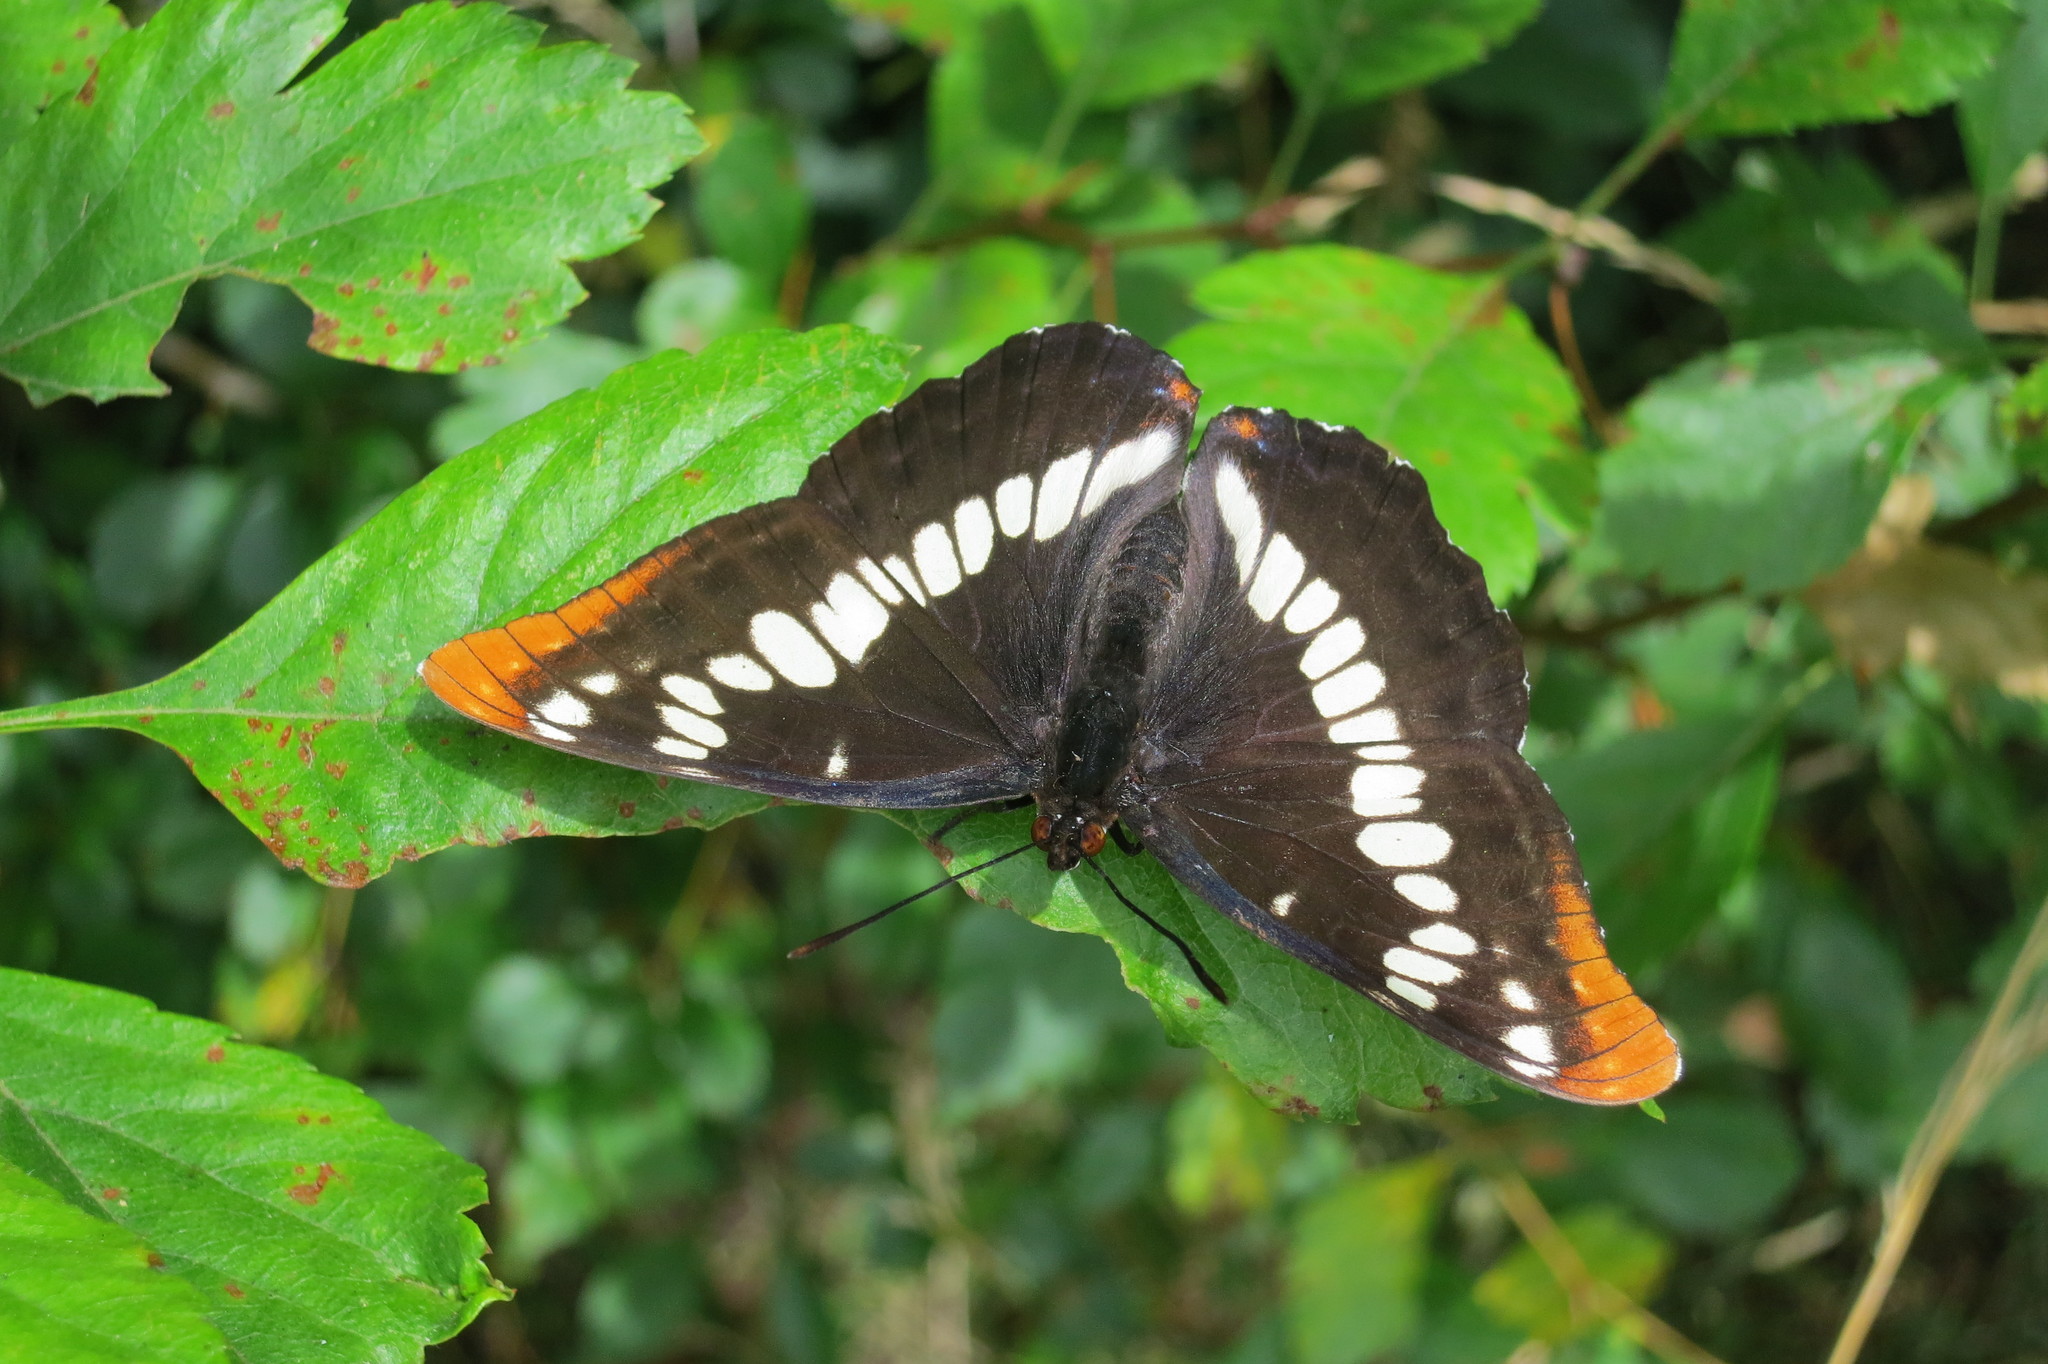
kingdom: Animalia
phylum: Arthropoda
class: Insecta
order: Lepidoptera
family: Nymphalidae
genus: Limenitis
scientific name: Limenitis lorquini
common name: Lorquin's admiral
